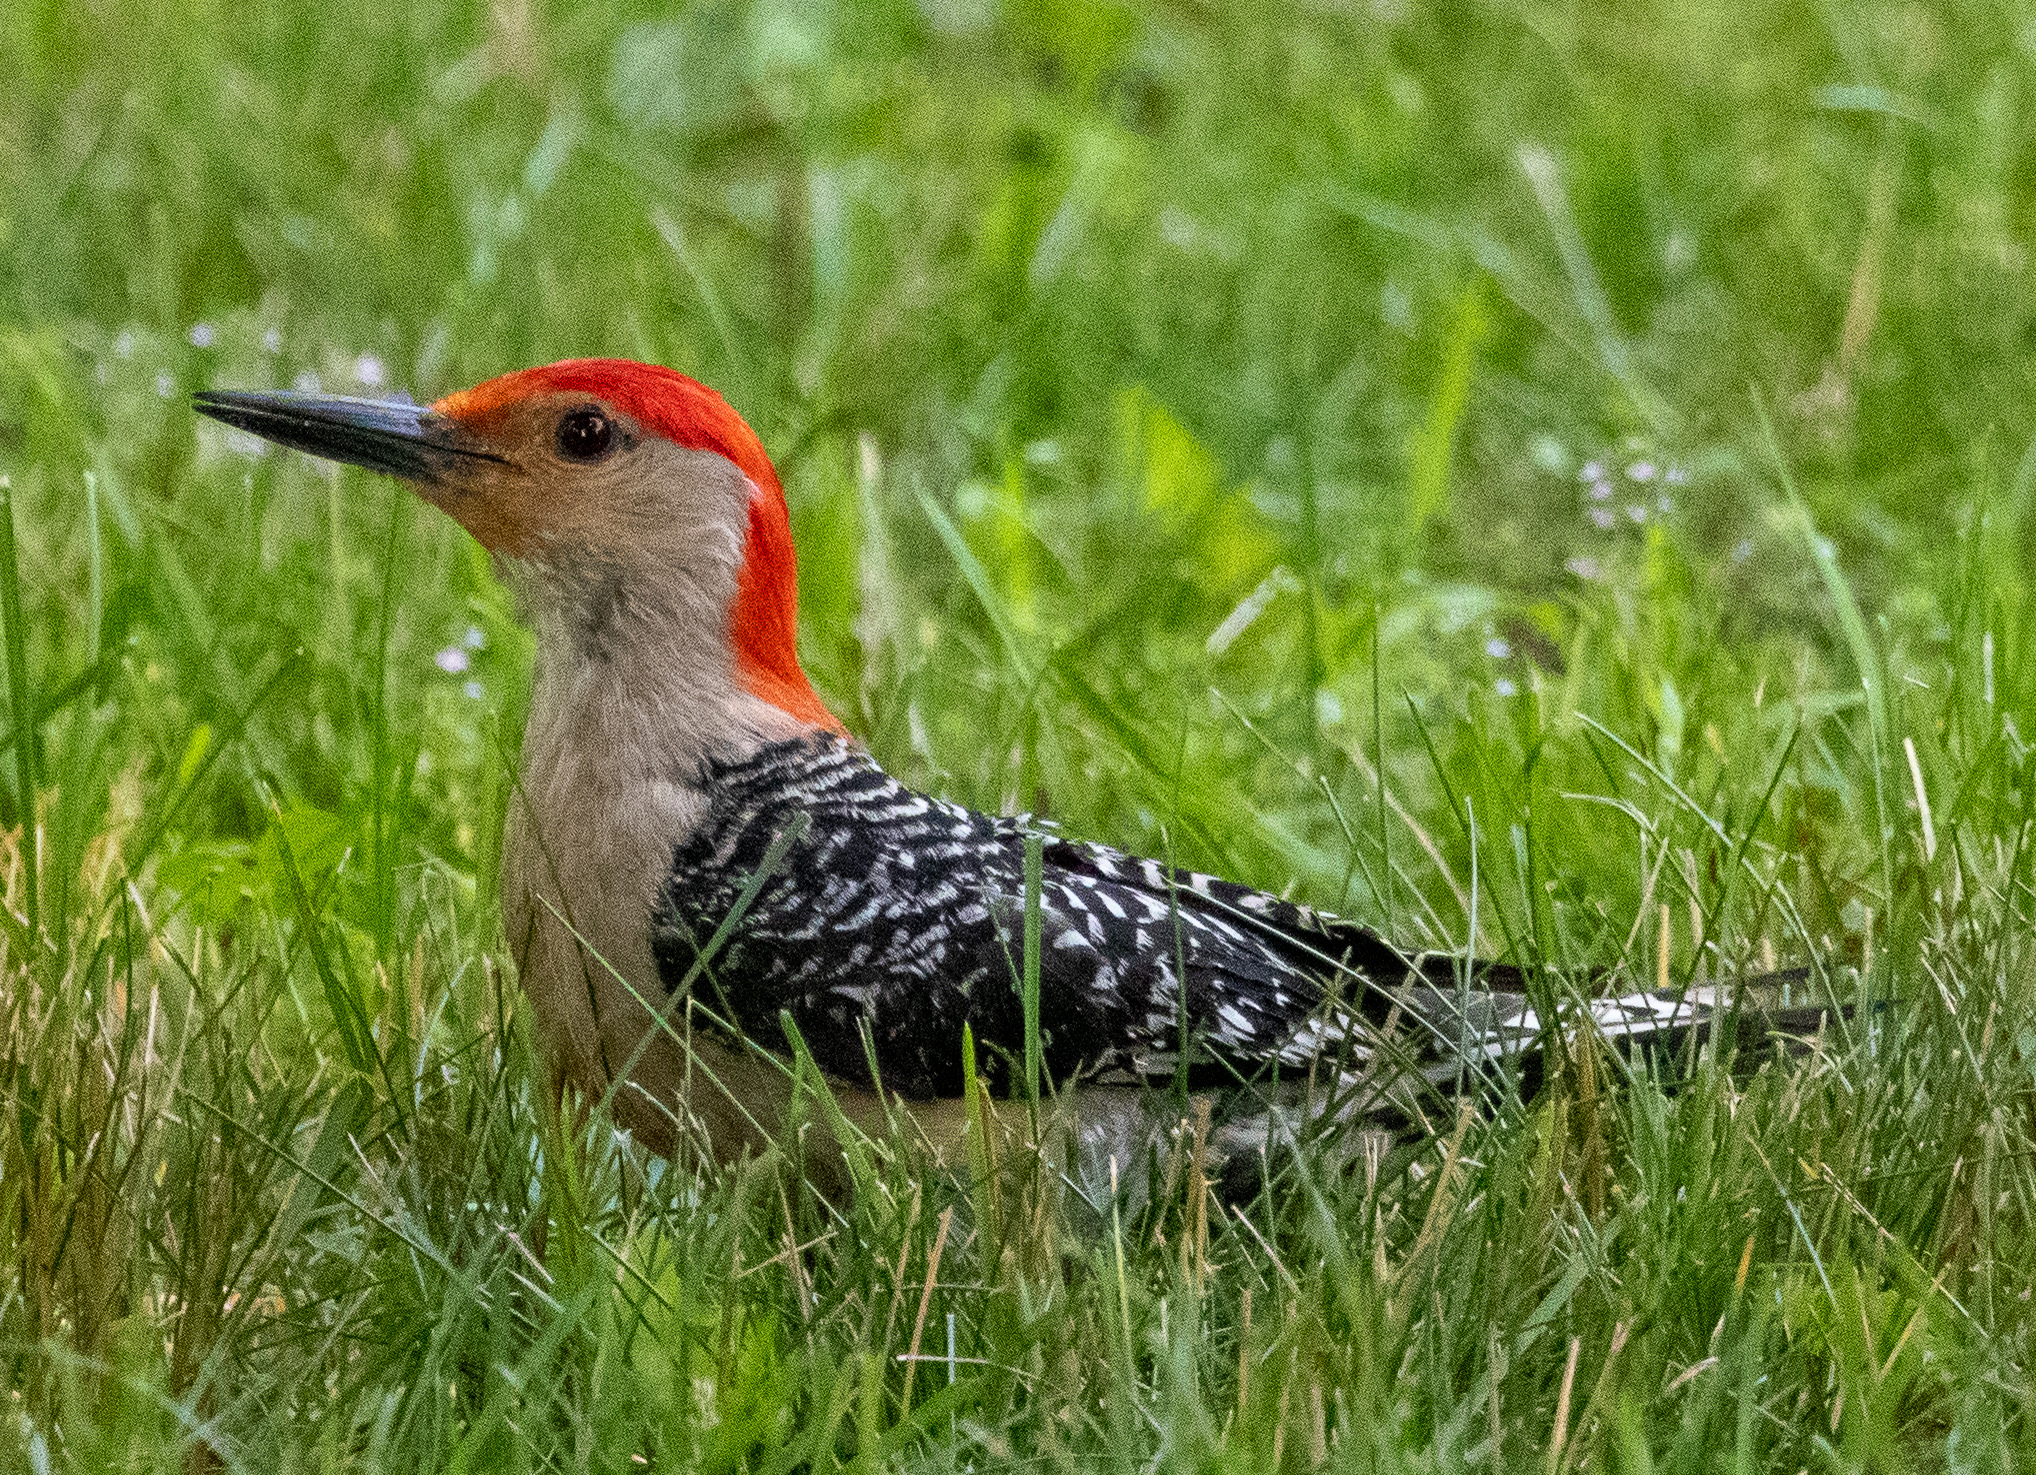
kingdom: Animalia
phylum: Chordata
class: Aves
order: Piciformes
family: Picidae
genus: Melanerpes
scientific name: Melanerpes carolinus
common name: Red-bellied woodpecker
